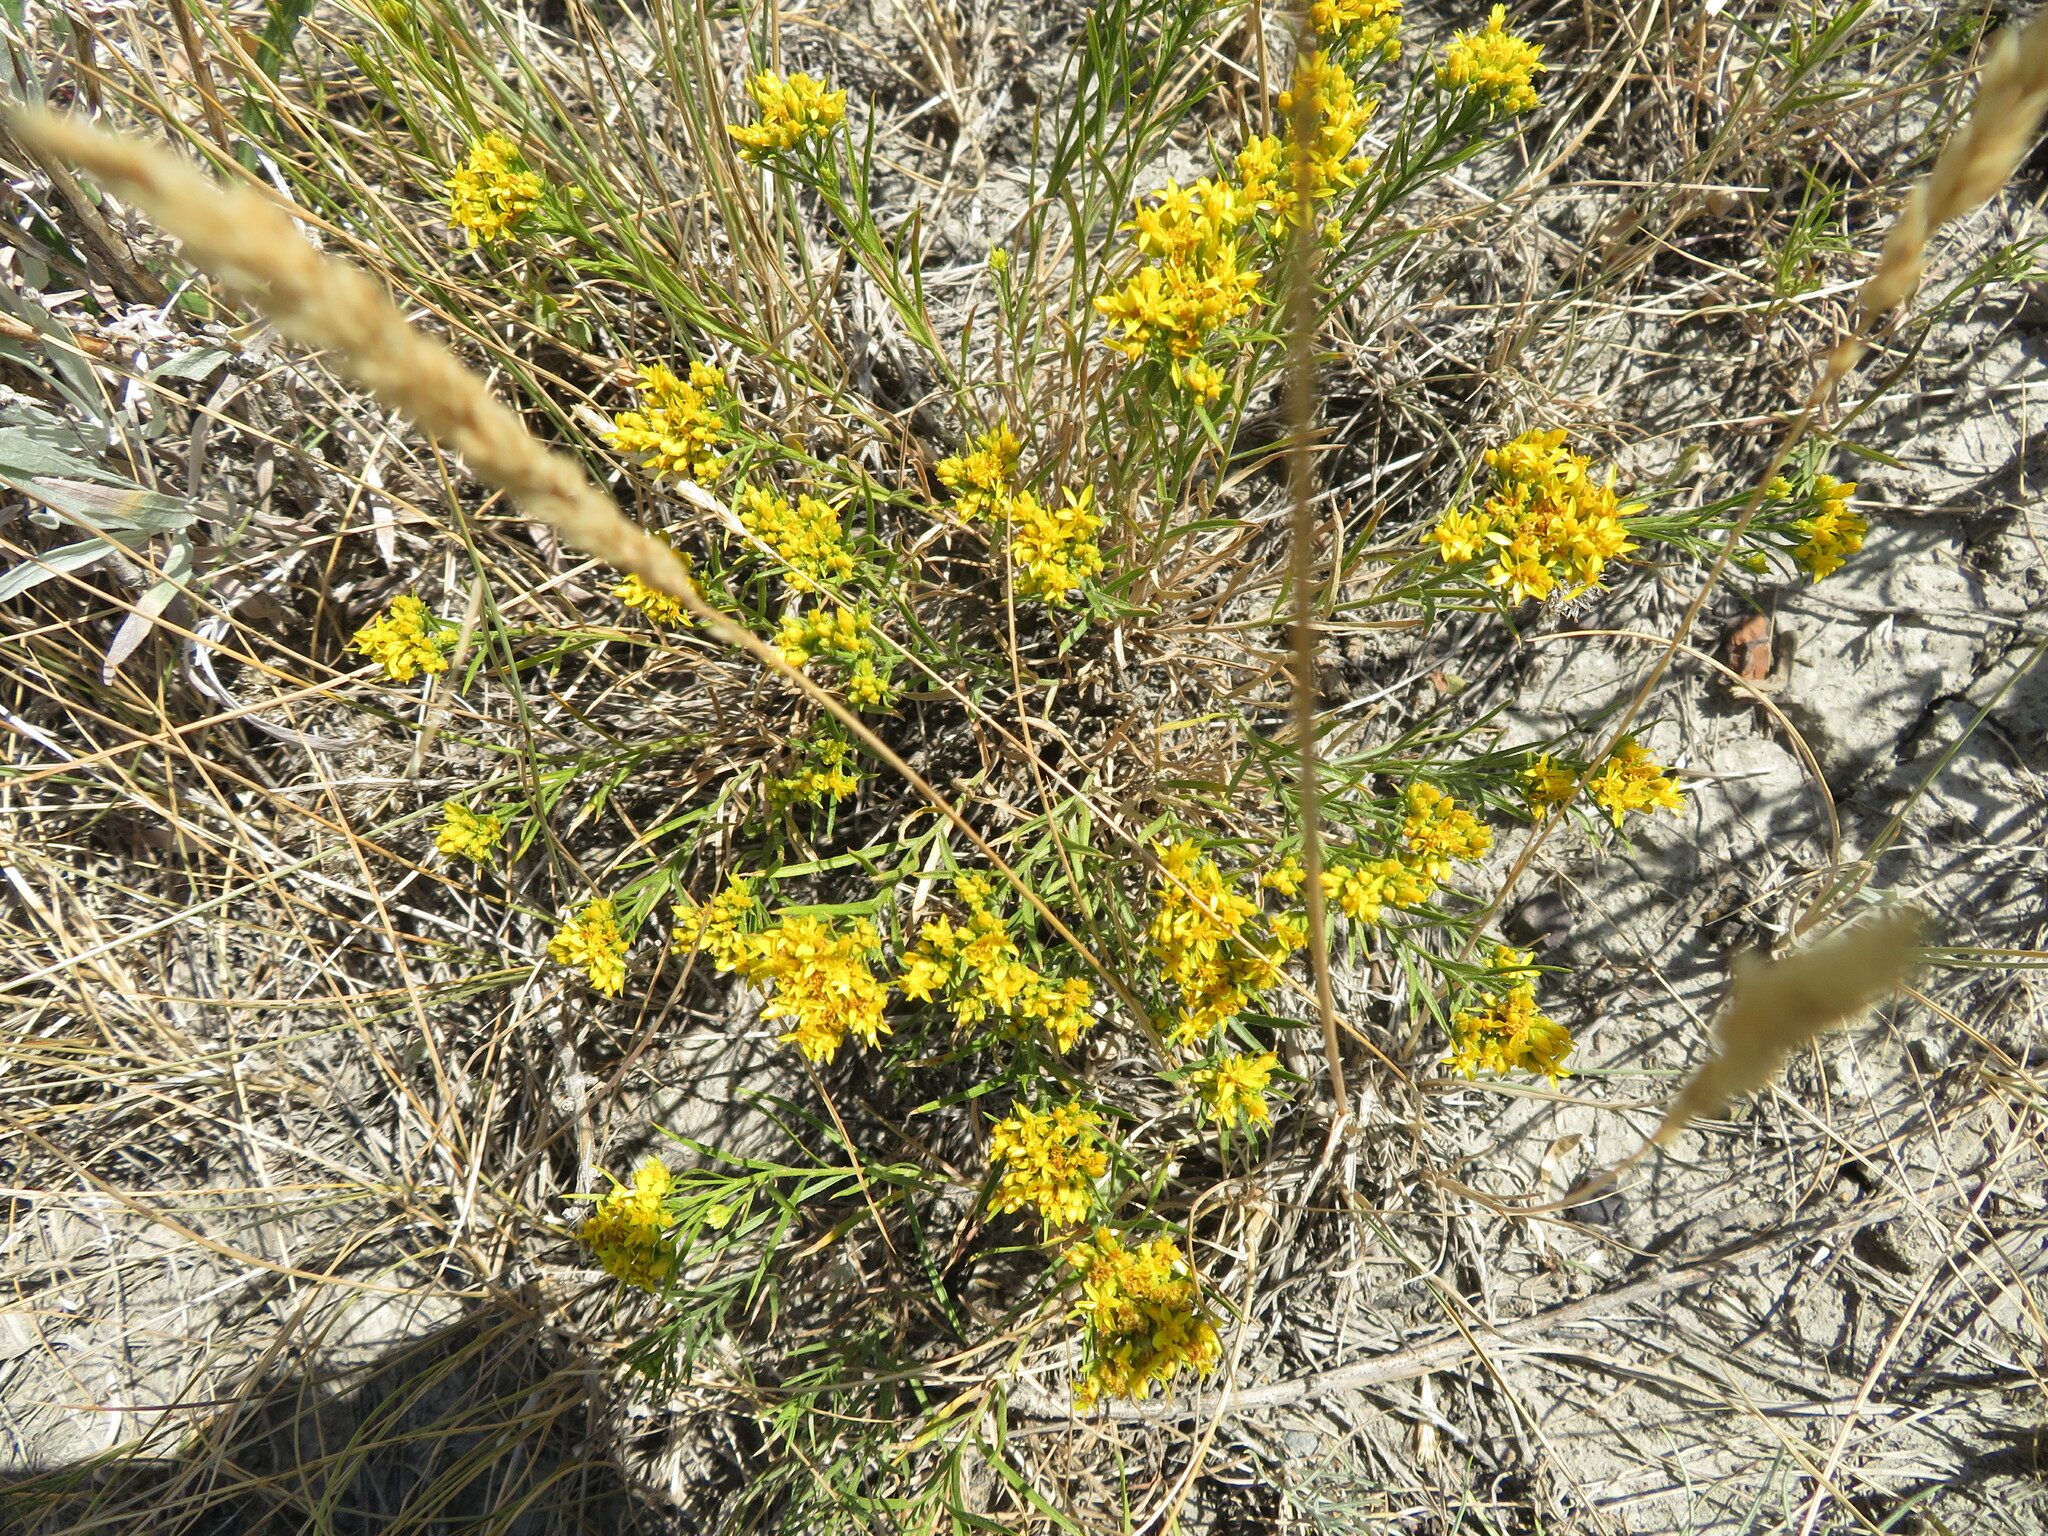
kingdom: Plantae
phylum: Tracheophyta
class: Magnoliopsida
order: Asterales
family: Asteraceae
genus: Gutierrezia
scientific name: Gutierrezia sarothrae
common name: Broom snakeweed
